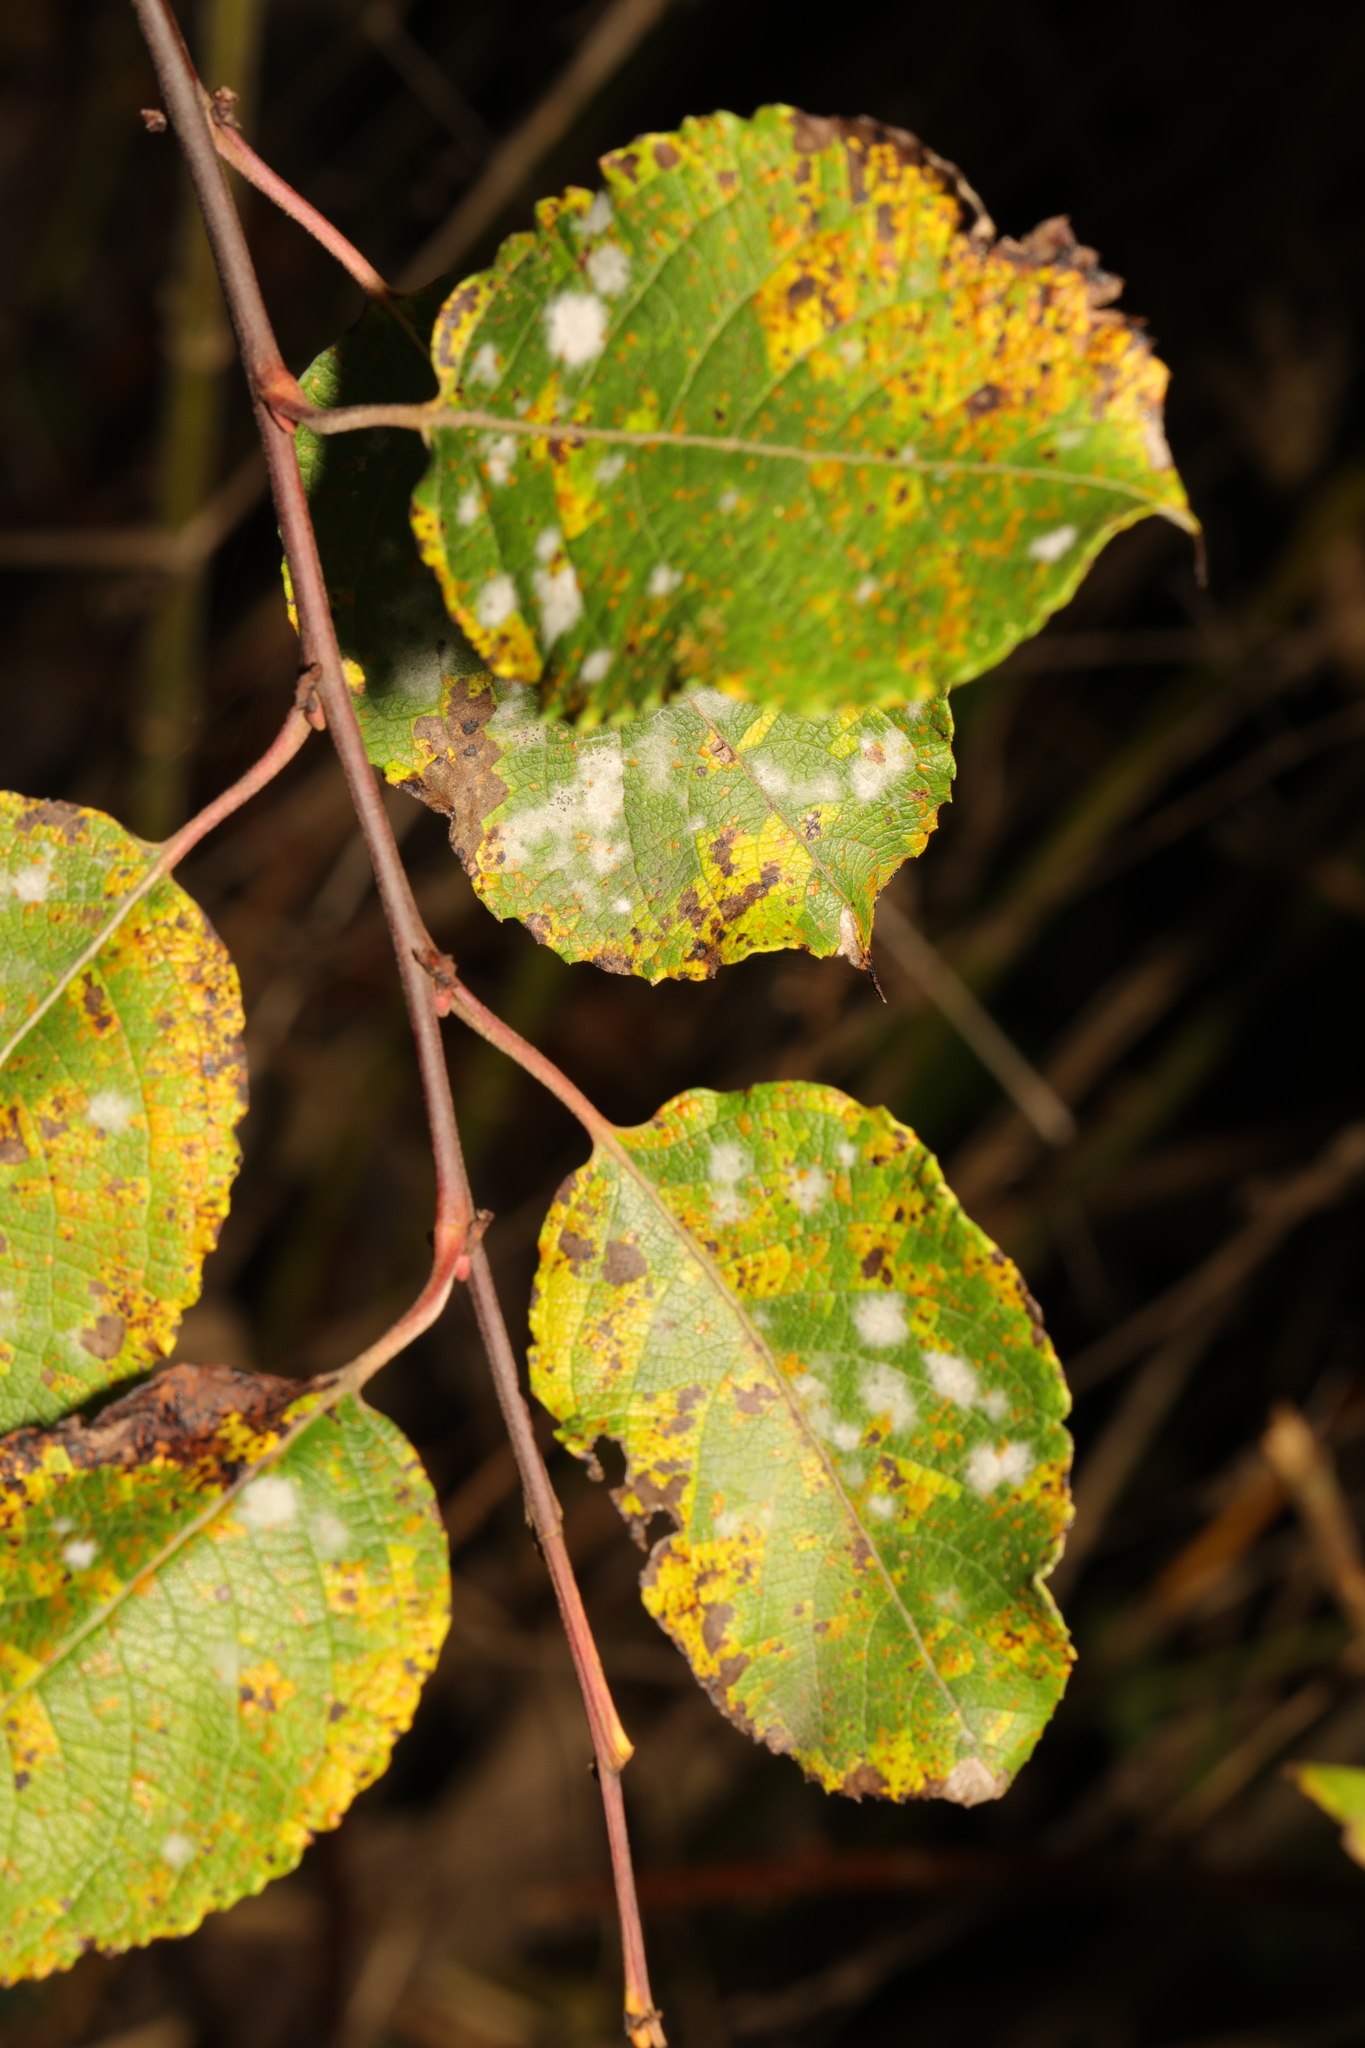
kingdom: Plantae
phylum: Tracheophyta
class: Magnoliopsida
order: Malpighiales
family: Salicaceae
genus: Salix
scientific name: Salix caprea
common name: Goat willow
